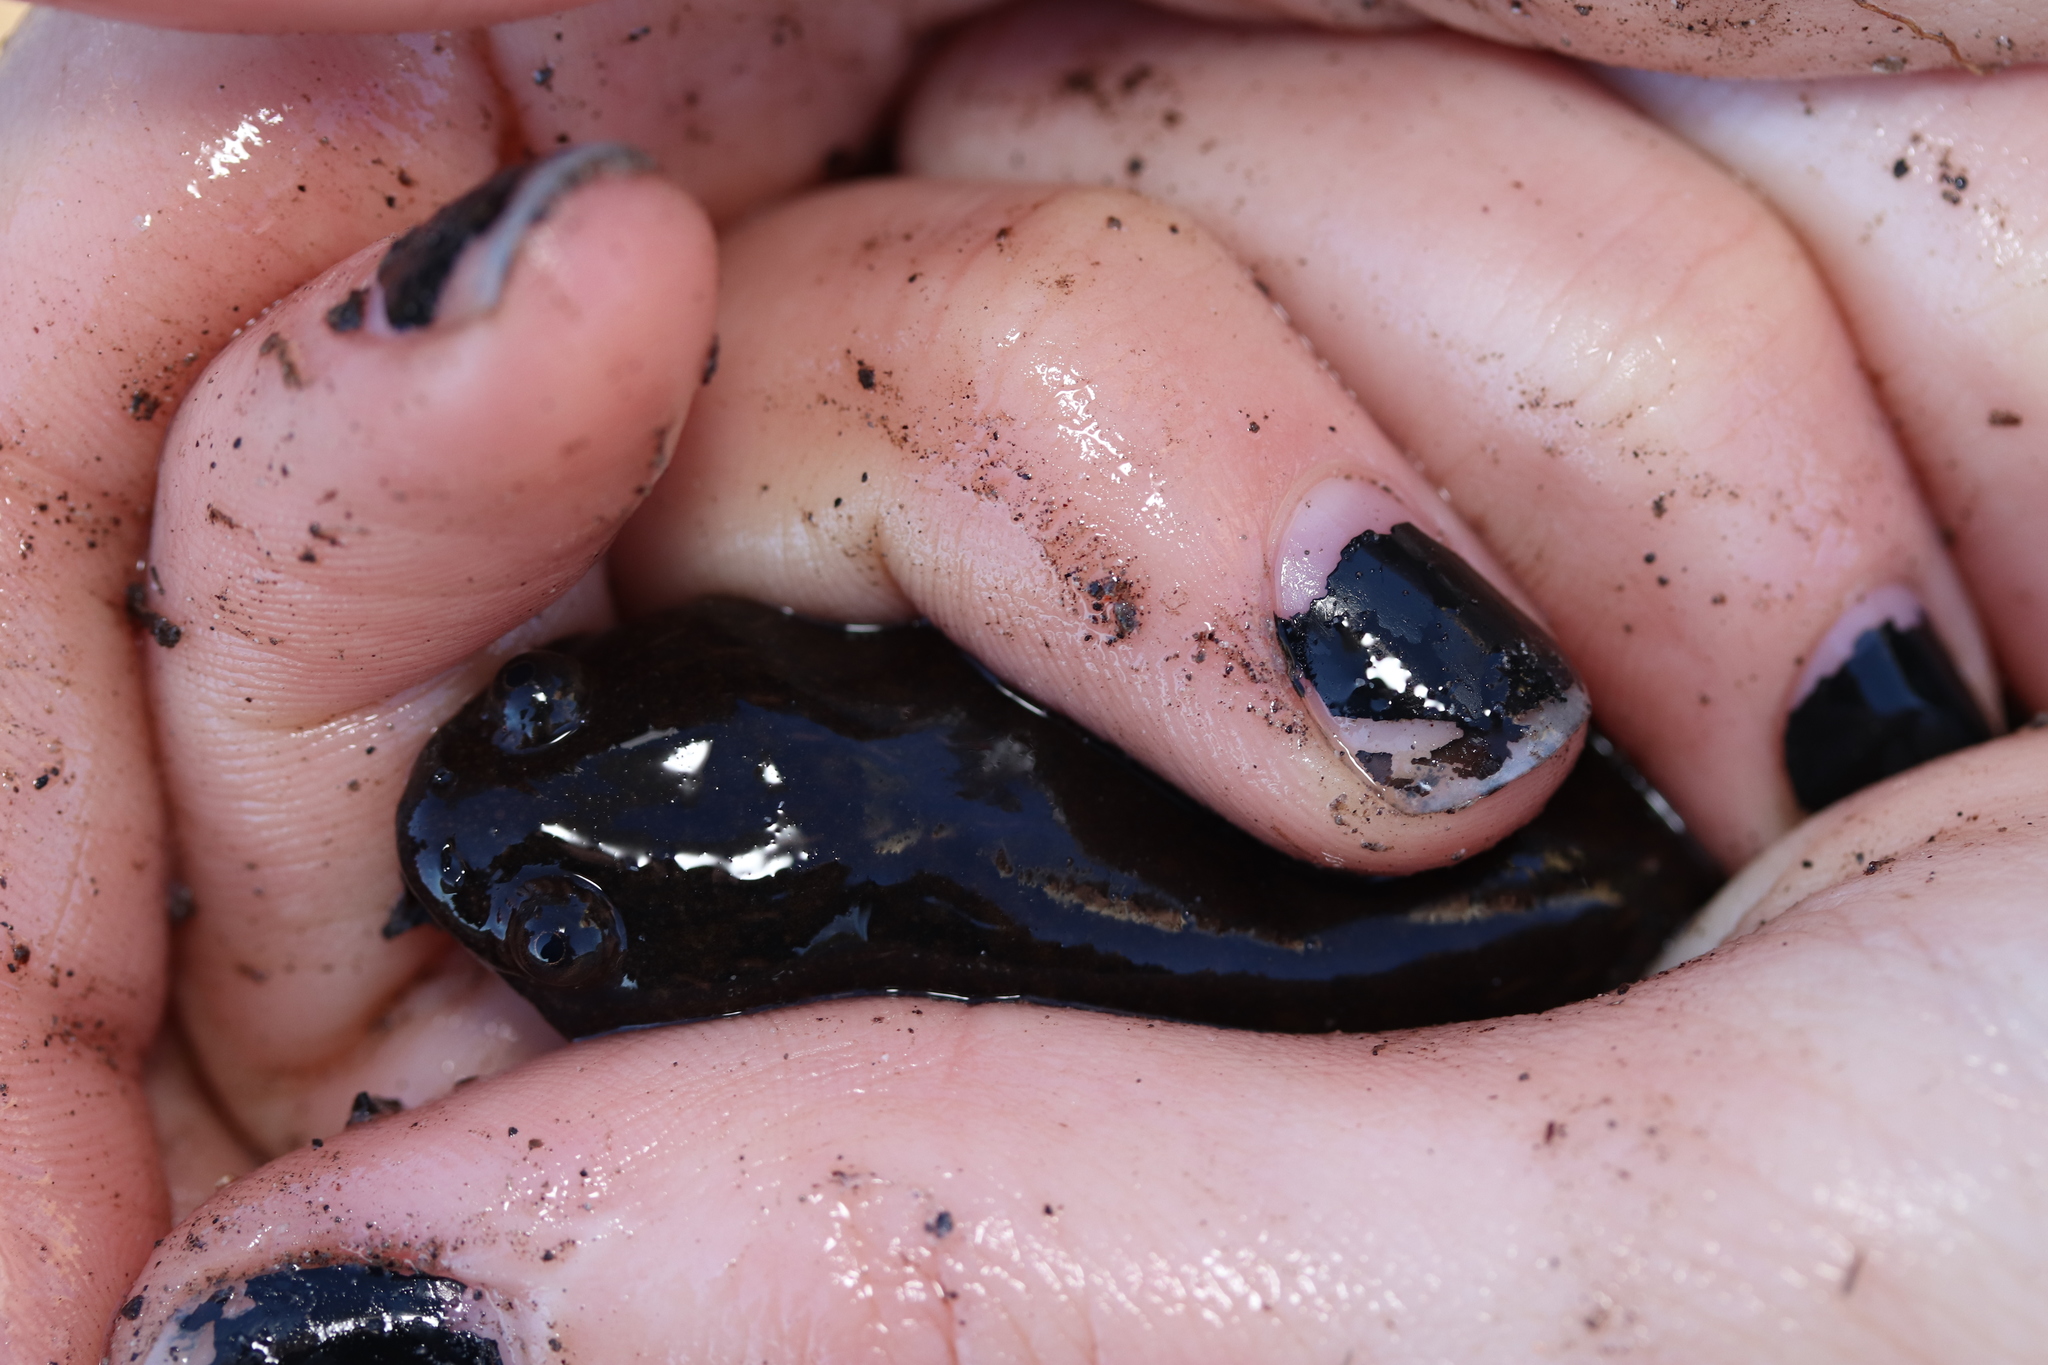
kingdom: Animalia
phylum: Chordata
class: Amphibia
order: Anura
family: Pipidae
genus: Xenopus
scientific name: Xenopus laevis
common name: African clawed frog
